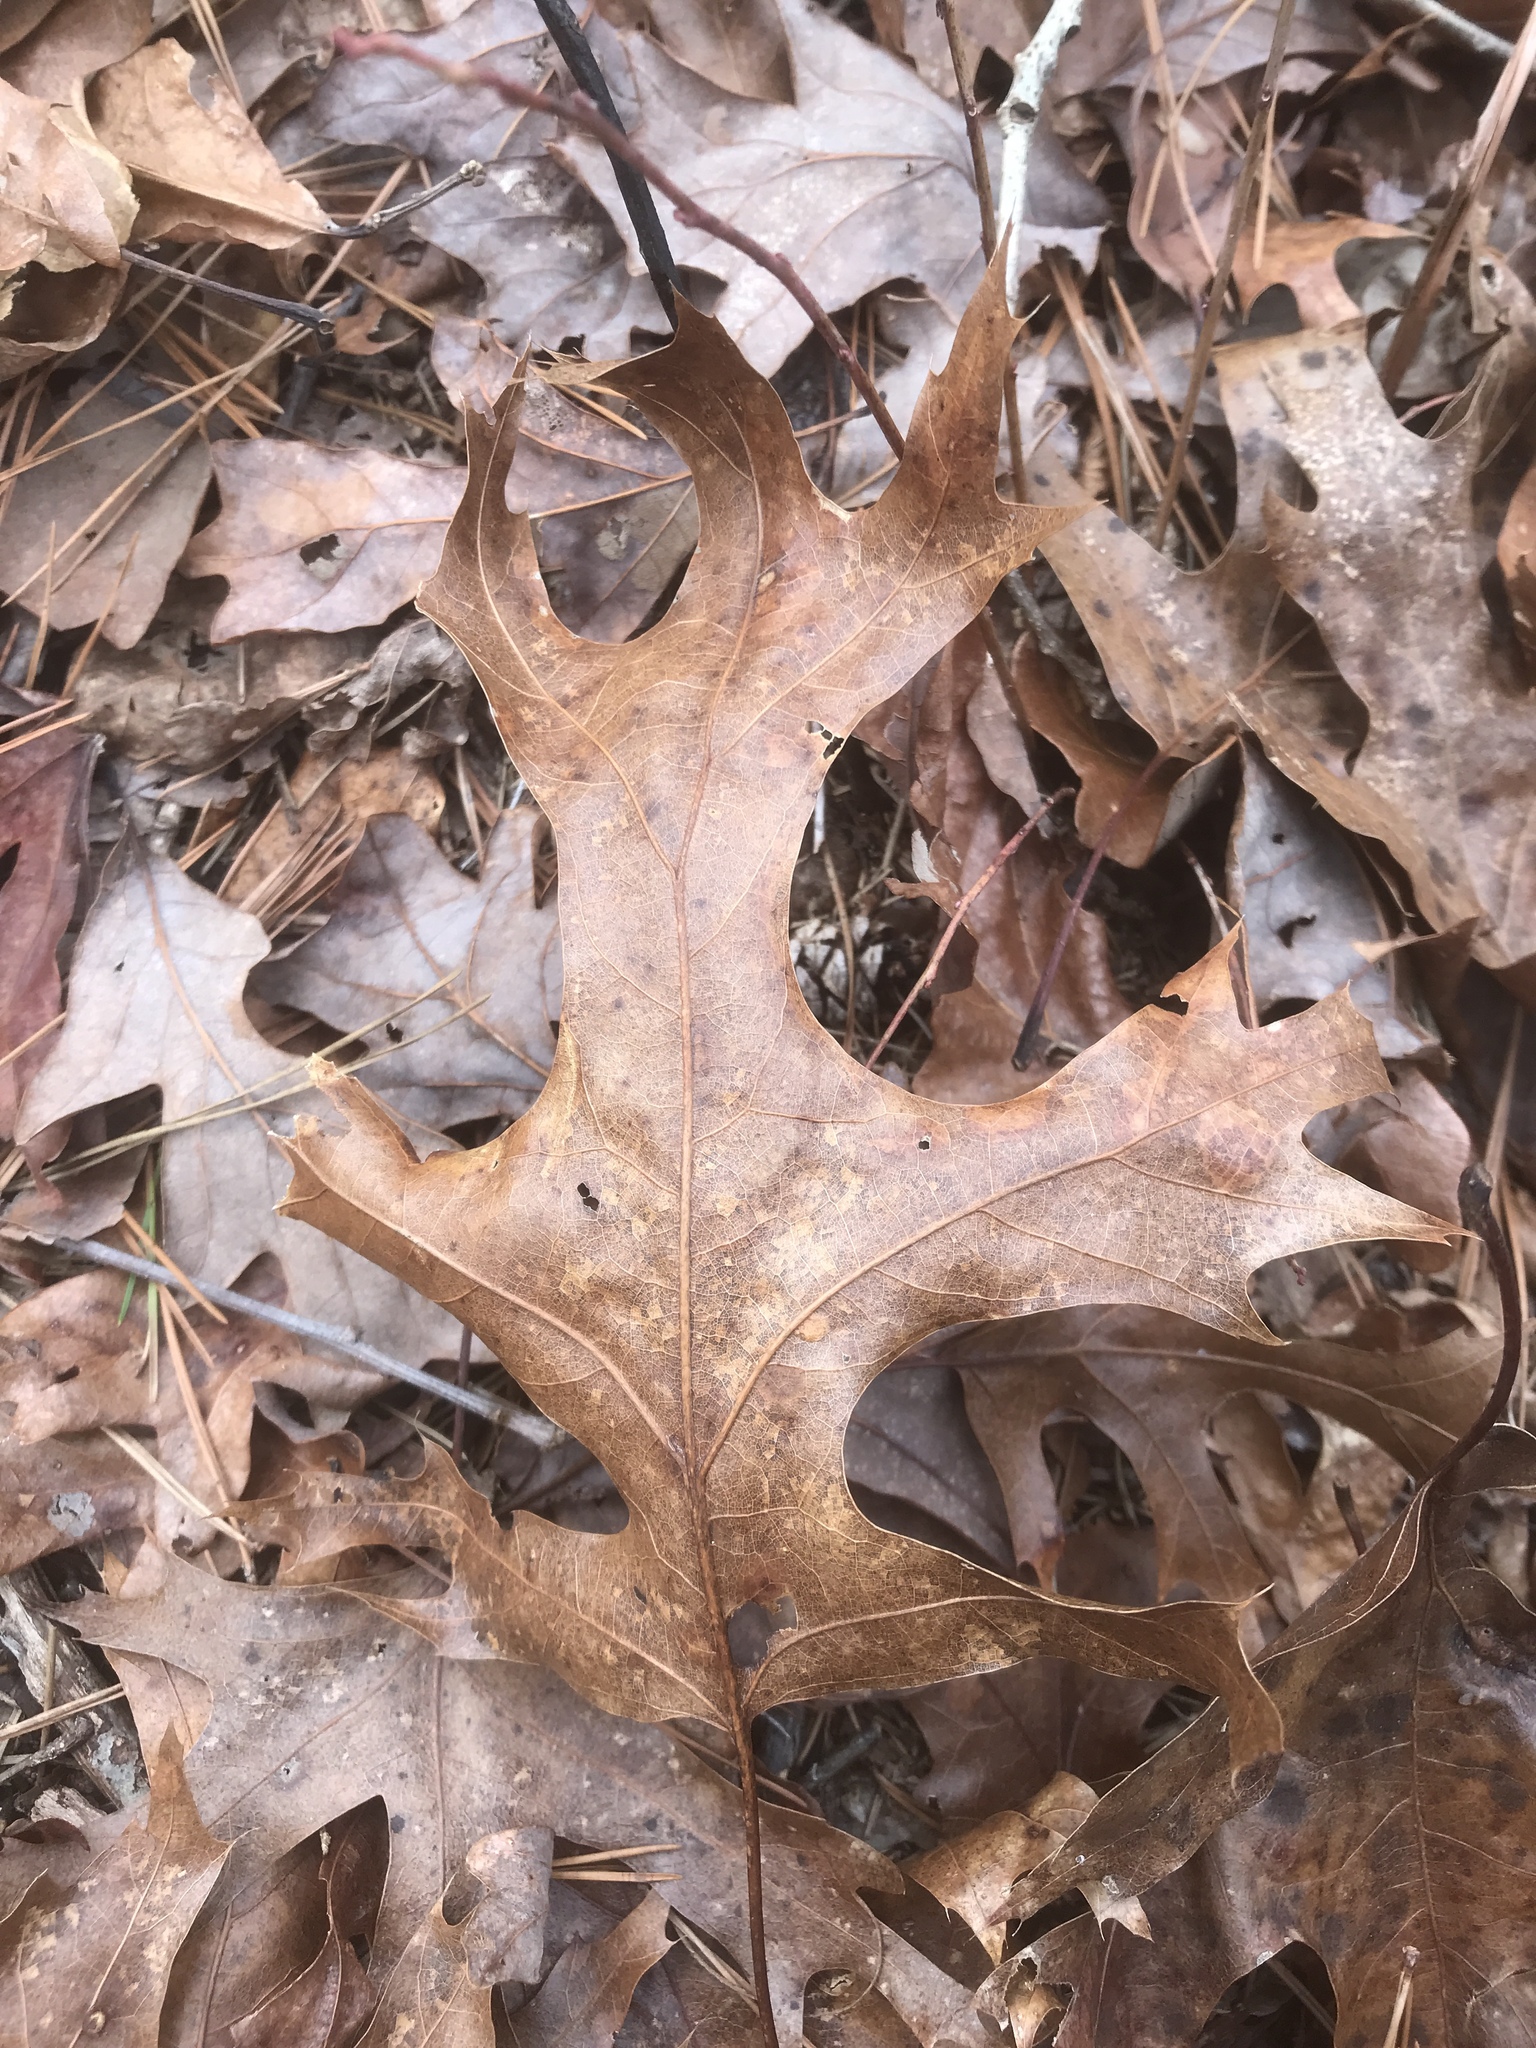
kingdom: Plantae
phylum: Tracheophyta
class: Magnoliopsida
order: Fagales
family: Fagaceae
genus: Quercus
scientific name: Quercus coccinea
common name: Scarlet oak
